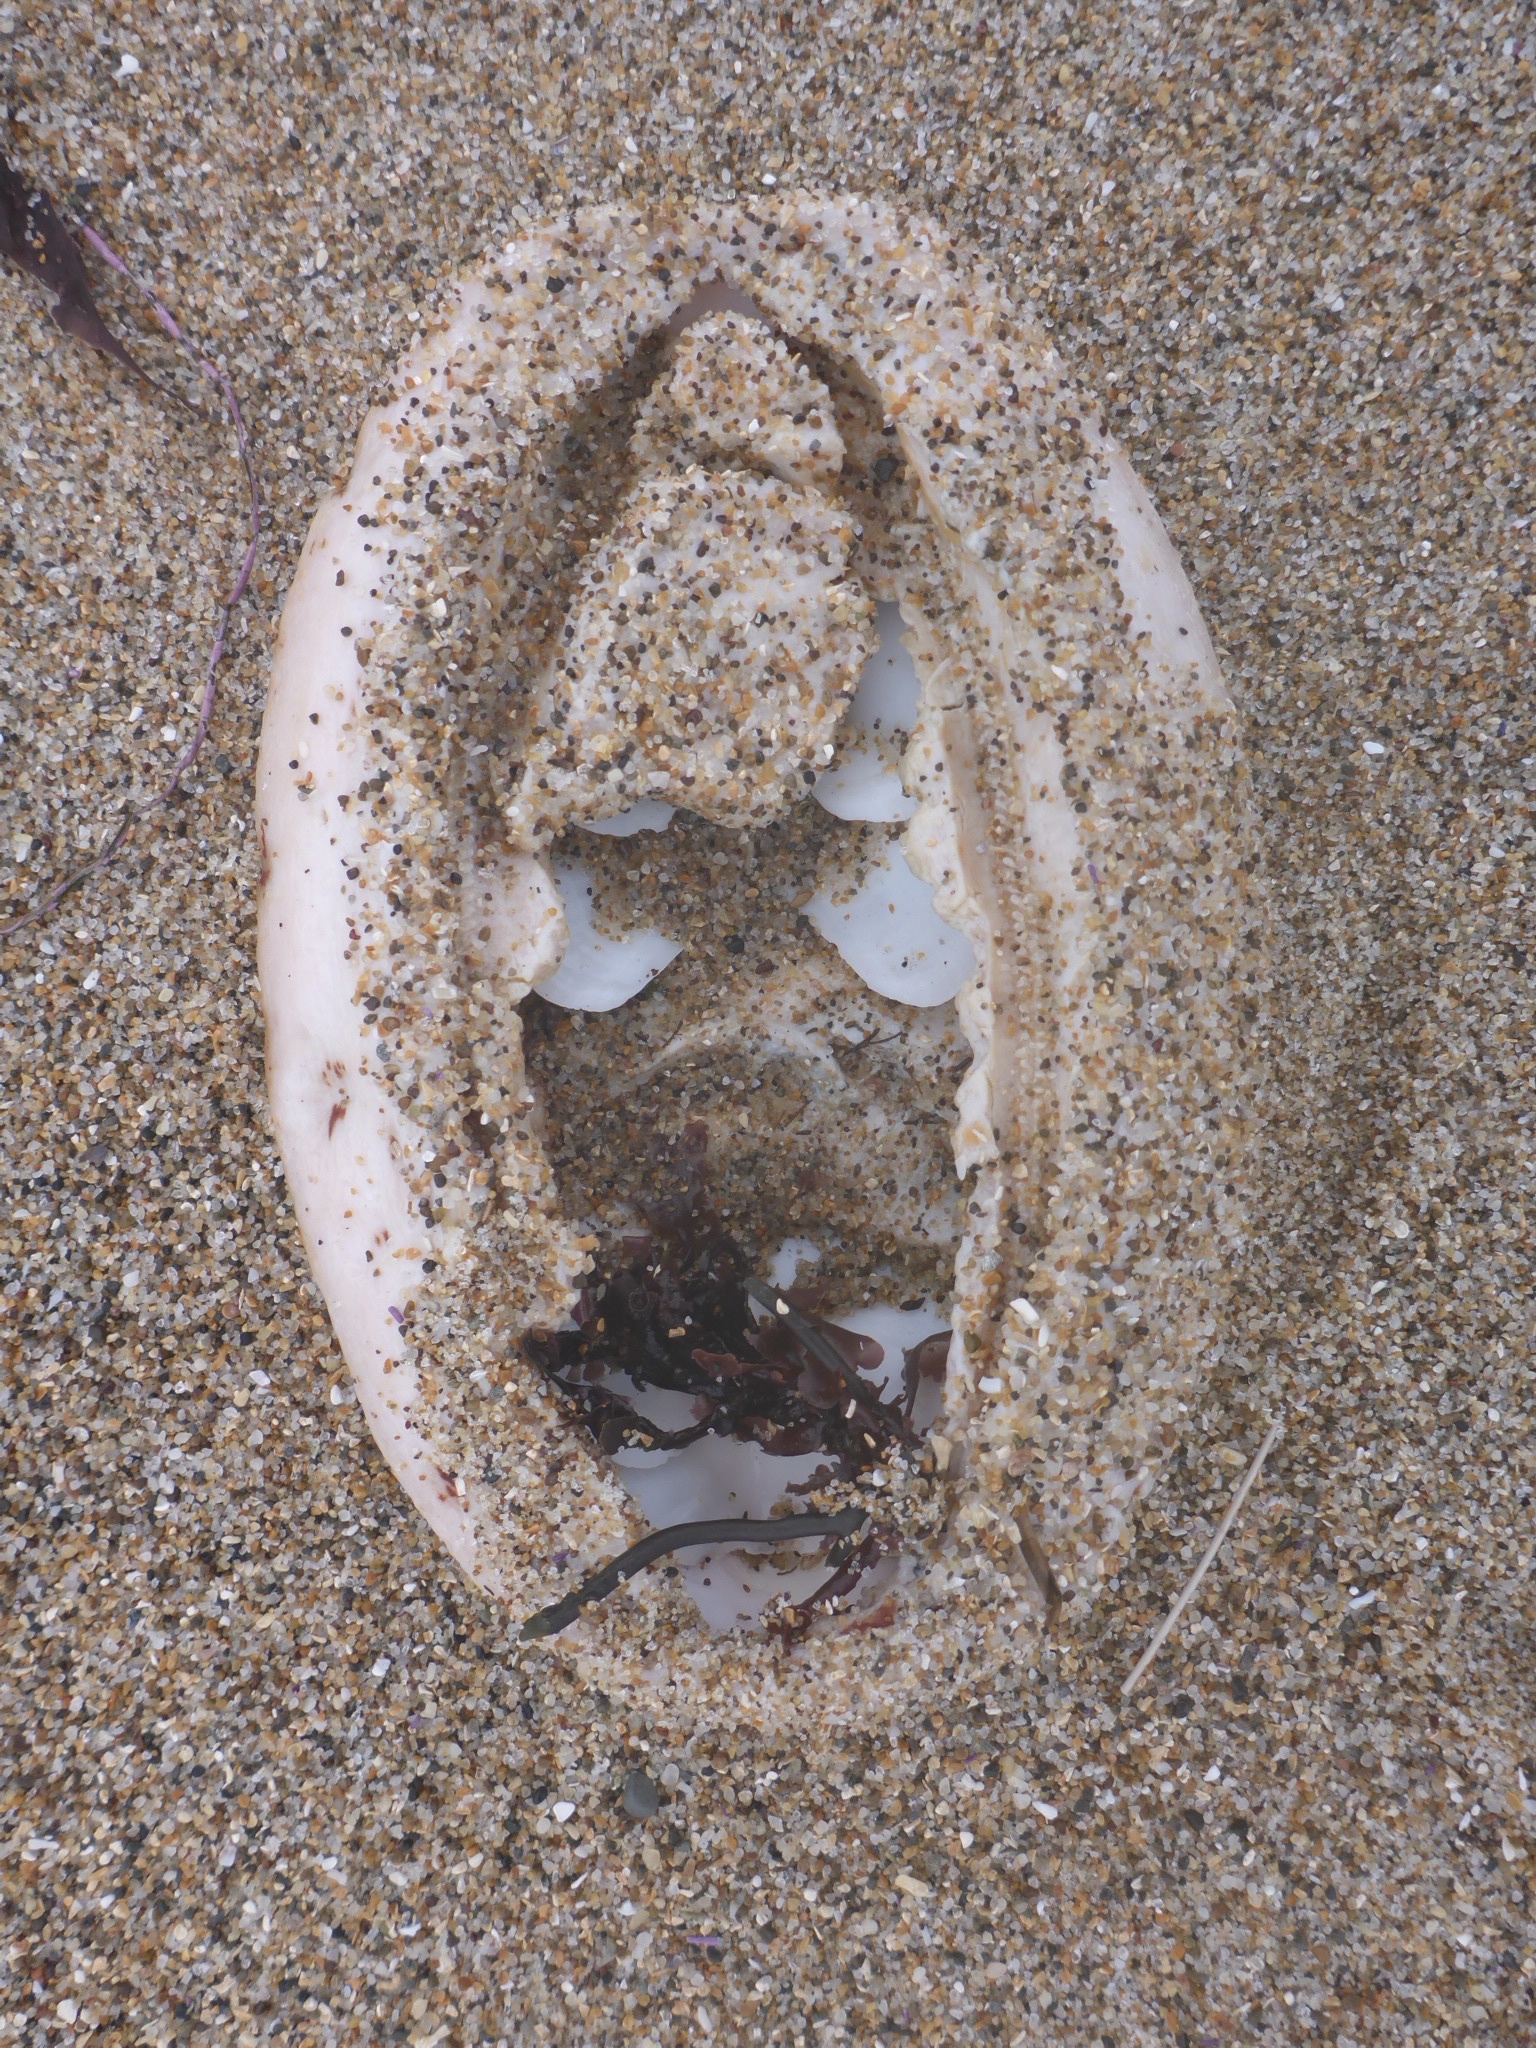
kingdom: Animalia
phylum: Mollusca
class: Polyplacophora
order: Chitonida
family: Acanthochitonidae
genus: Cryptochiton
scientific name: Cryptochiton stelleri
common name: Giant pacific chiton
